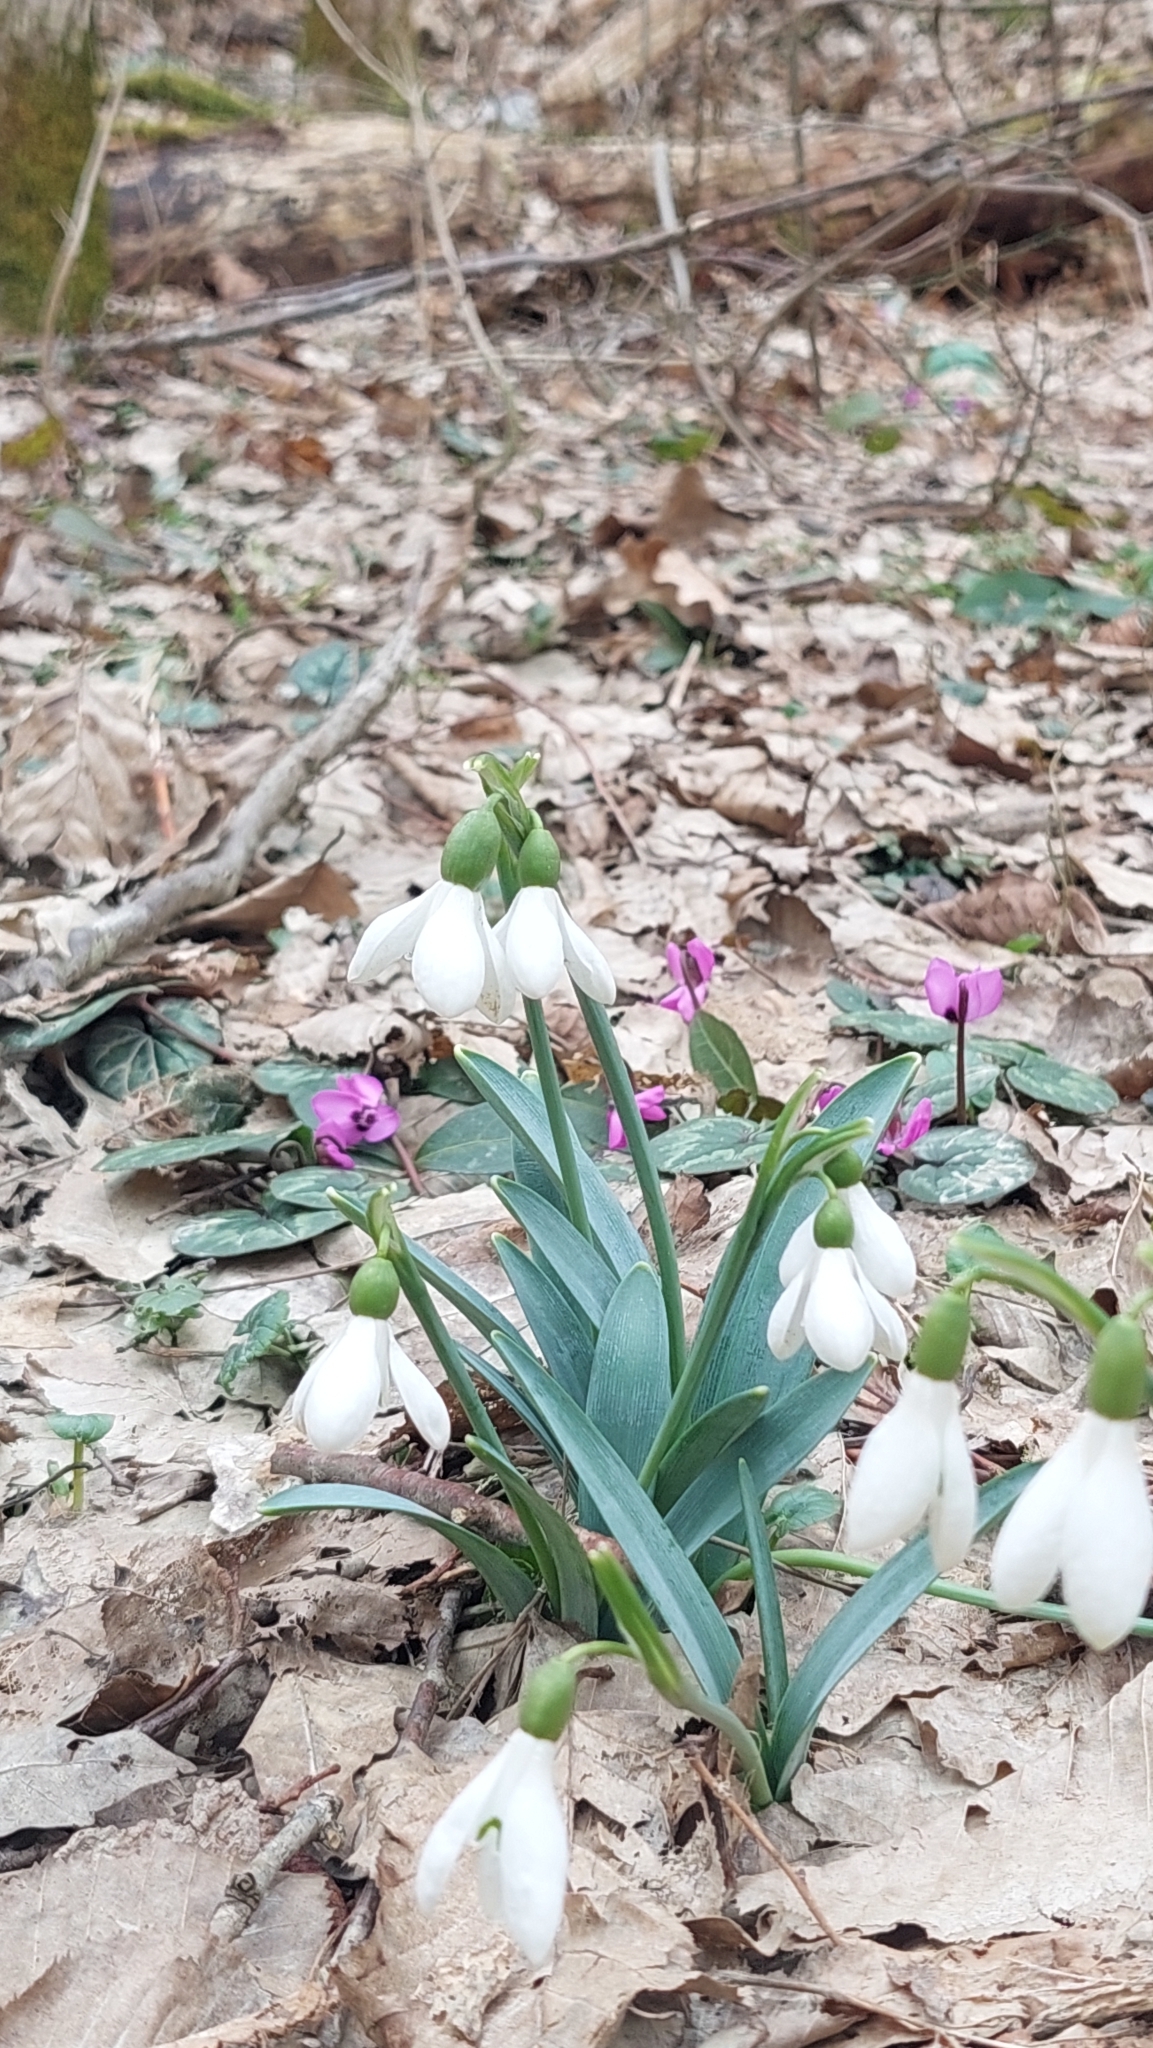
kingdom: Plantae
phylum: Tracheophyta
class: Liliopsida
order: Asparagales
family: Amaryllidaceae
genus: Galanthus
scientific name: Galanthus alpinus
